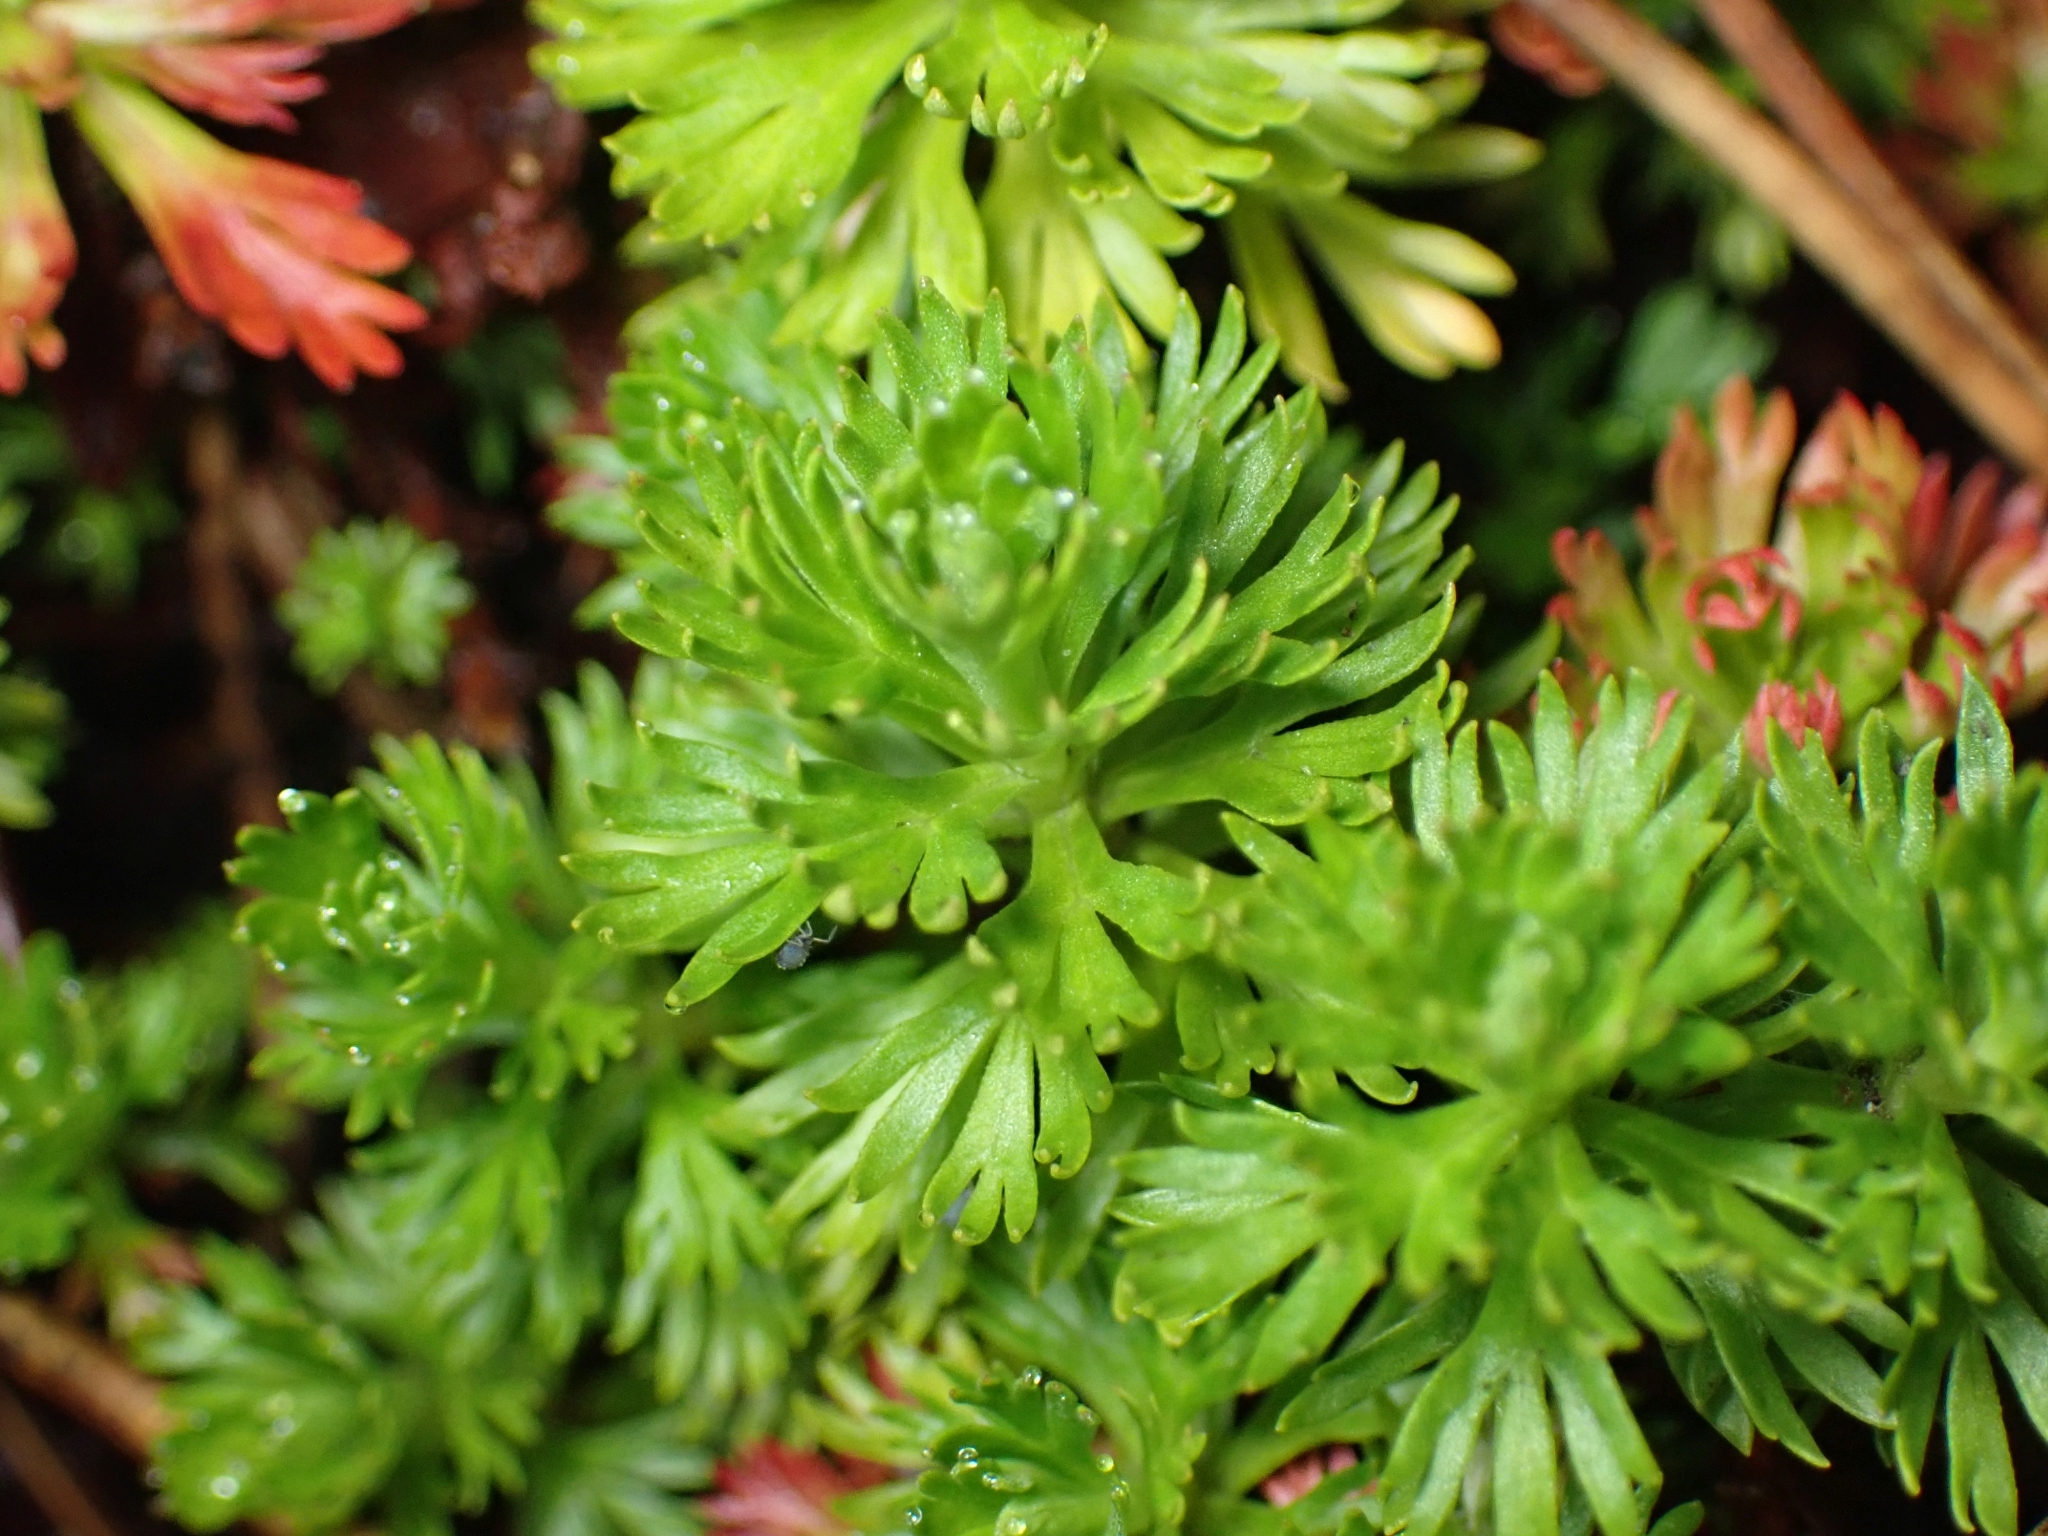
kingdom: Plantae
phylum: Tracheophyta
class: Magnoliopsida
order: Rosales
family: Rosaceae
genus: Luetkea
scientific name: Luetkea pectinata
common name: Partridgefoot
